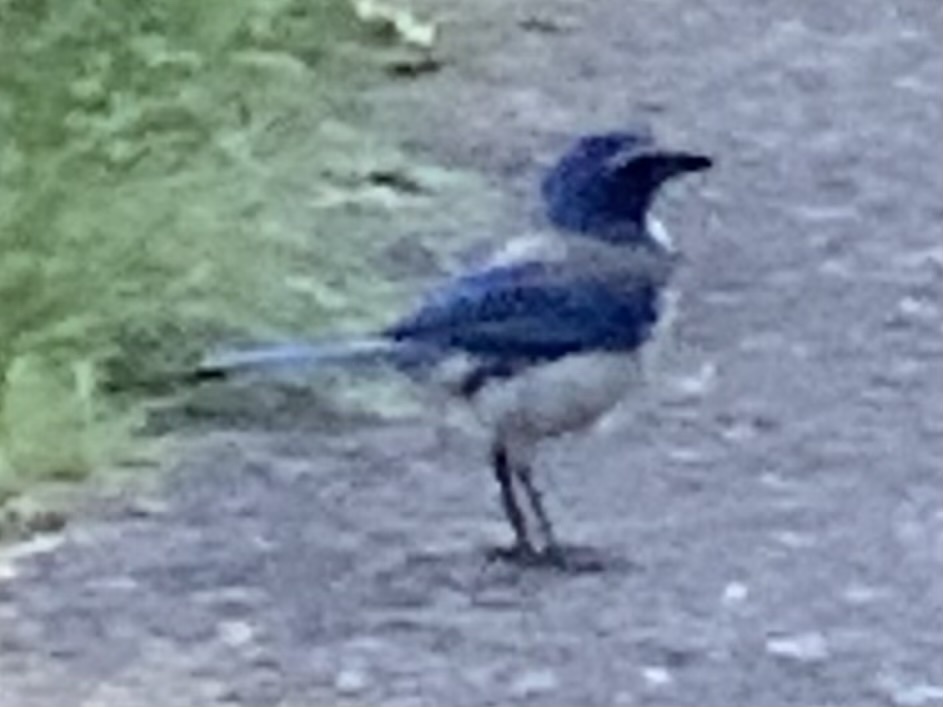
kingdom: Animalia
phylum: Chordata
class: Aves
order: Passeriformes
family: Corvidae
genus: Aphelocoma
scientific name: Aphelocoma californica
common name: California scrub-jay
